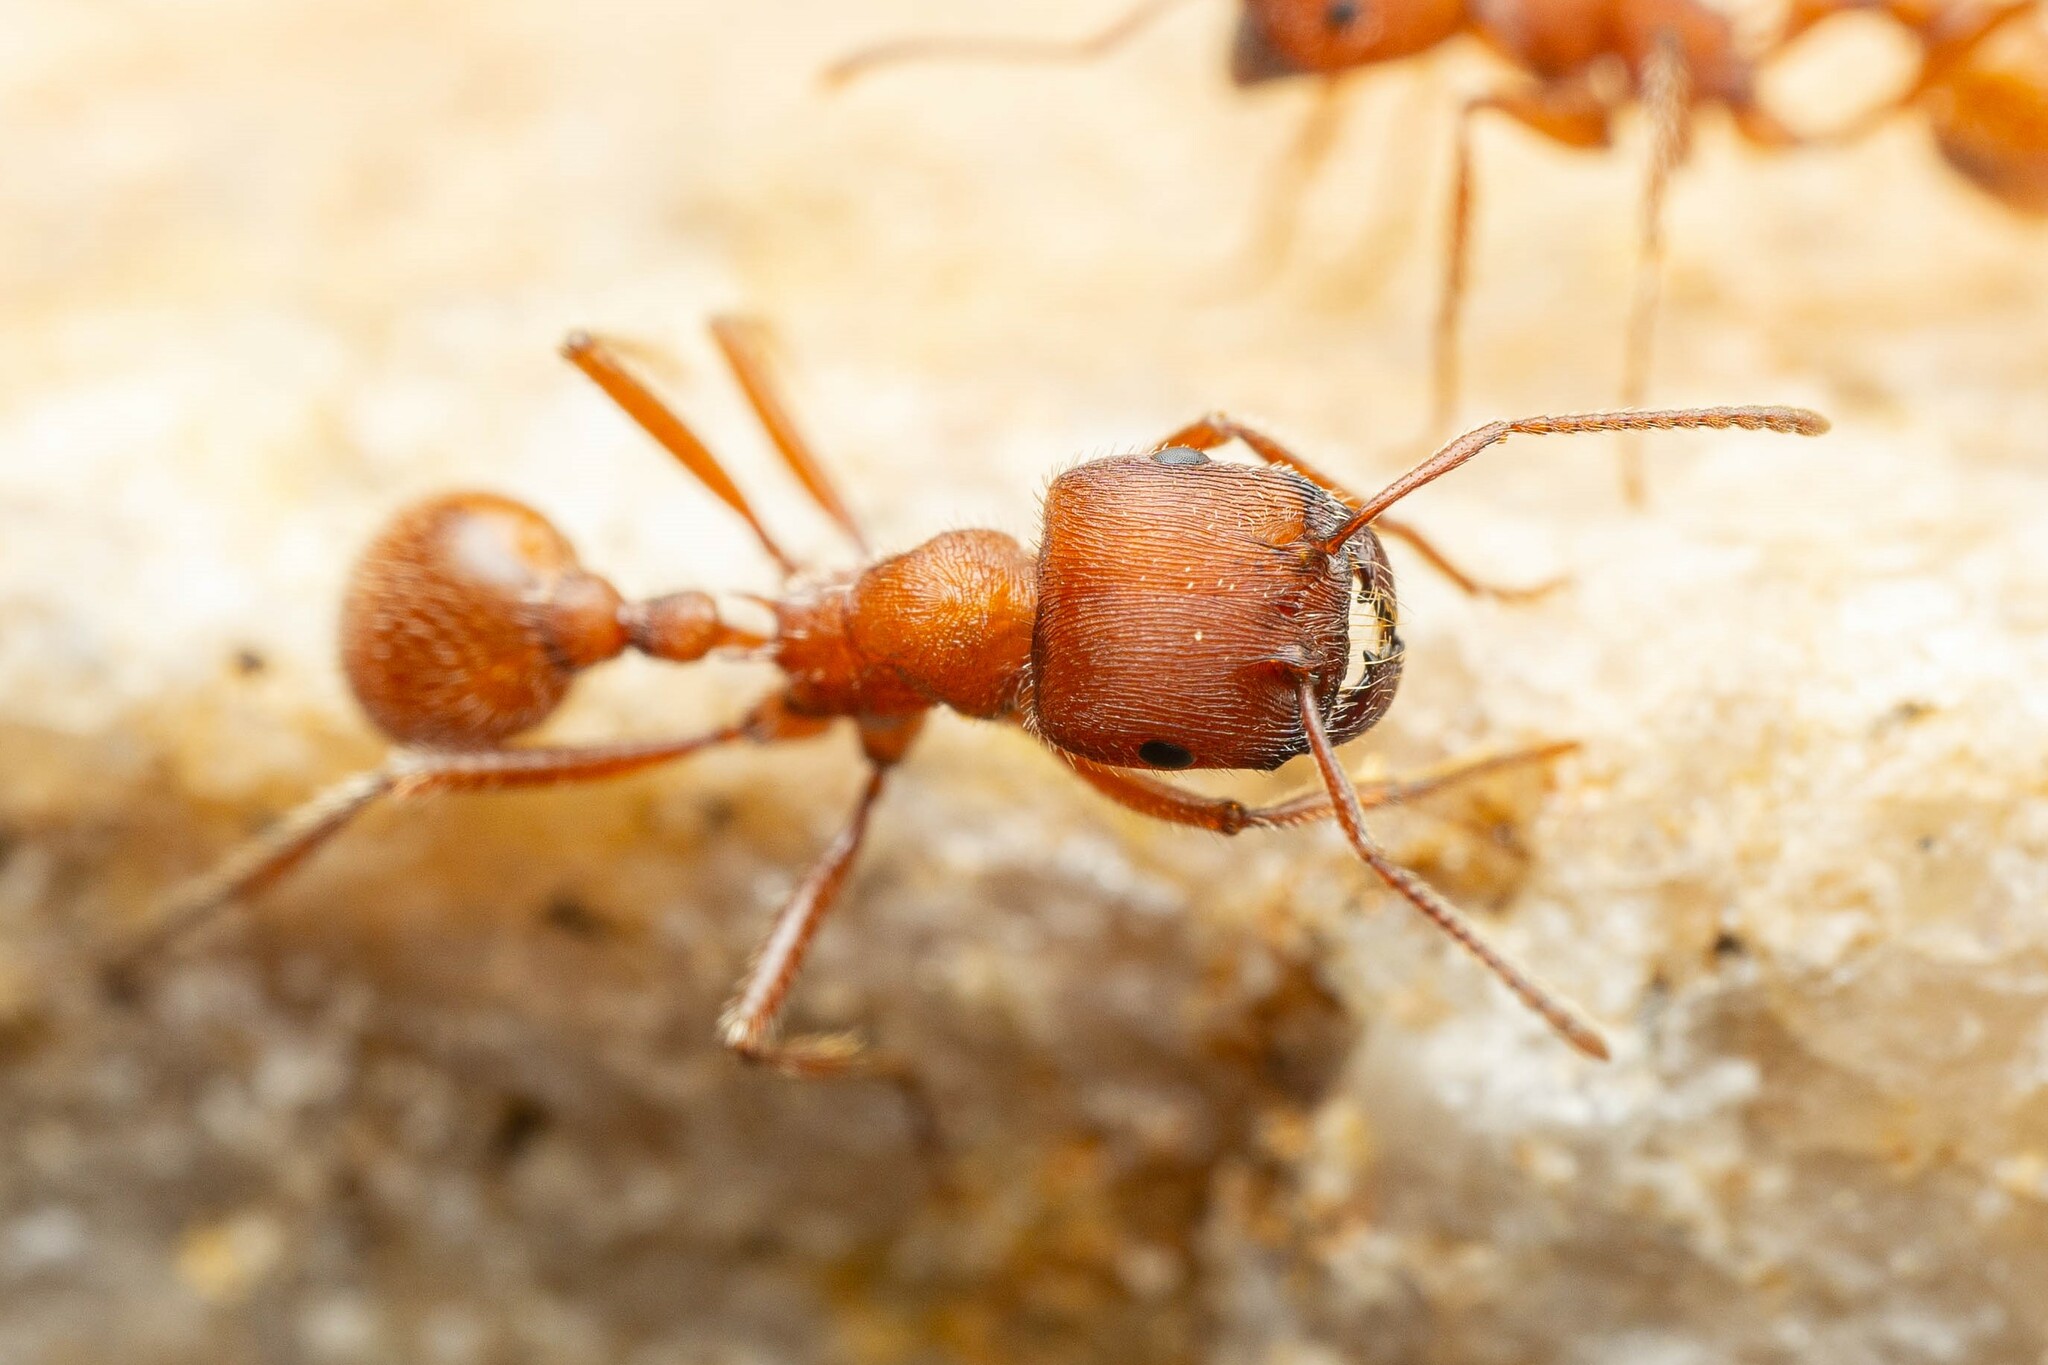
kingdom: Animalia
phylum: Arthropoda
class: Insecta
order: Hymenoptera
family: Formicidae
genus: Pogonomyrmex
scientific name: Pogonomyrmex occidentalis
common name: Western harvester ant
